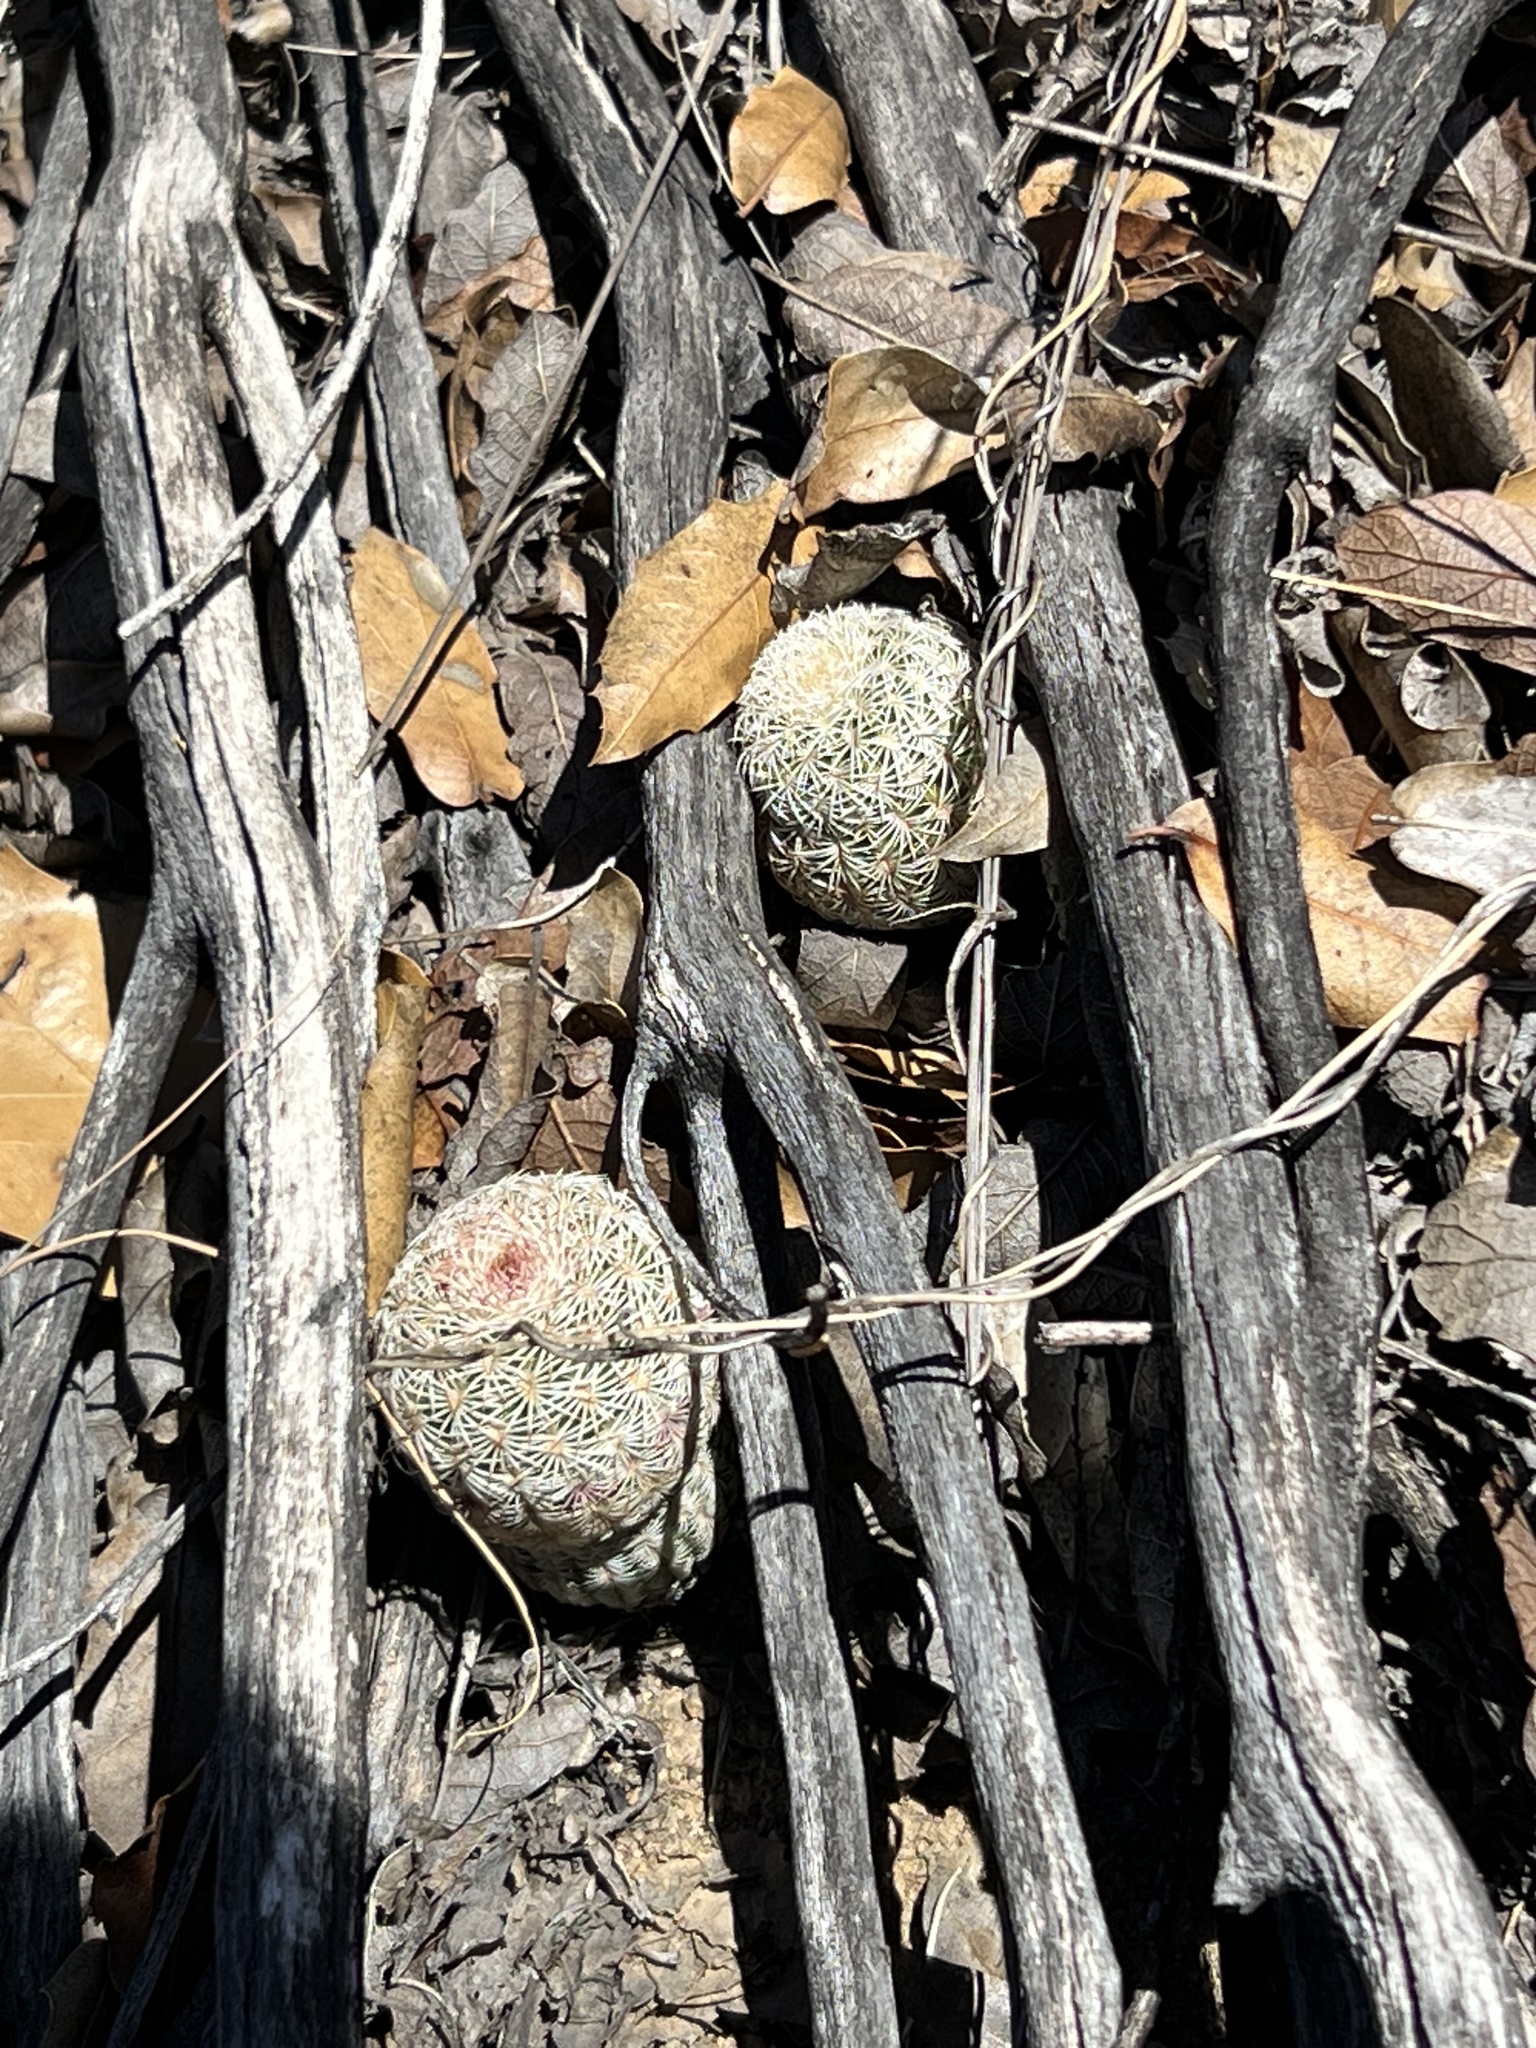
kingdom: Plantae
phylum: Tracheophyta
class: Magnoliopsida
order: Caryophyllales
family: Cactaceae
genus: Echinocereus
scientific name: Echinocereus rigidissimus
